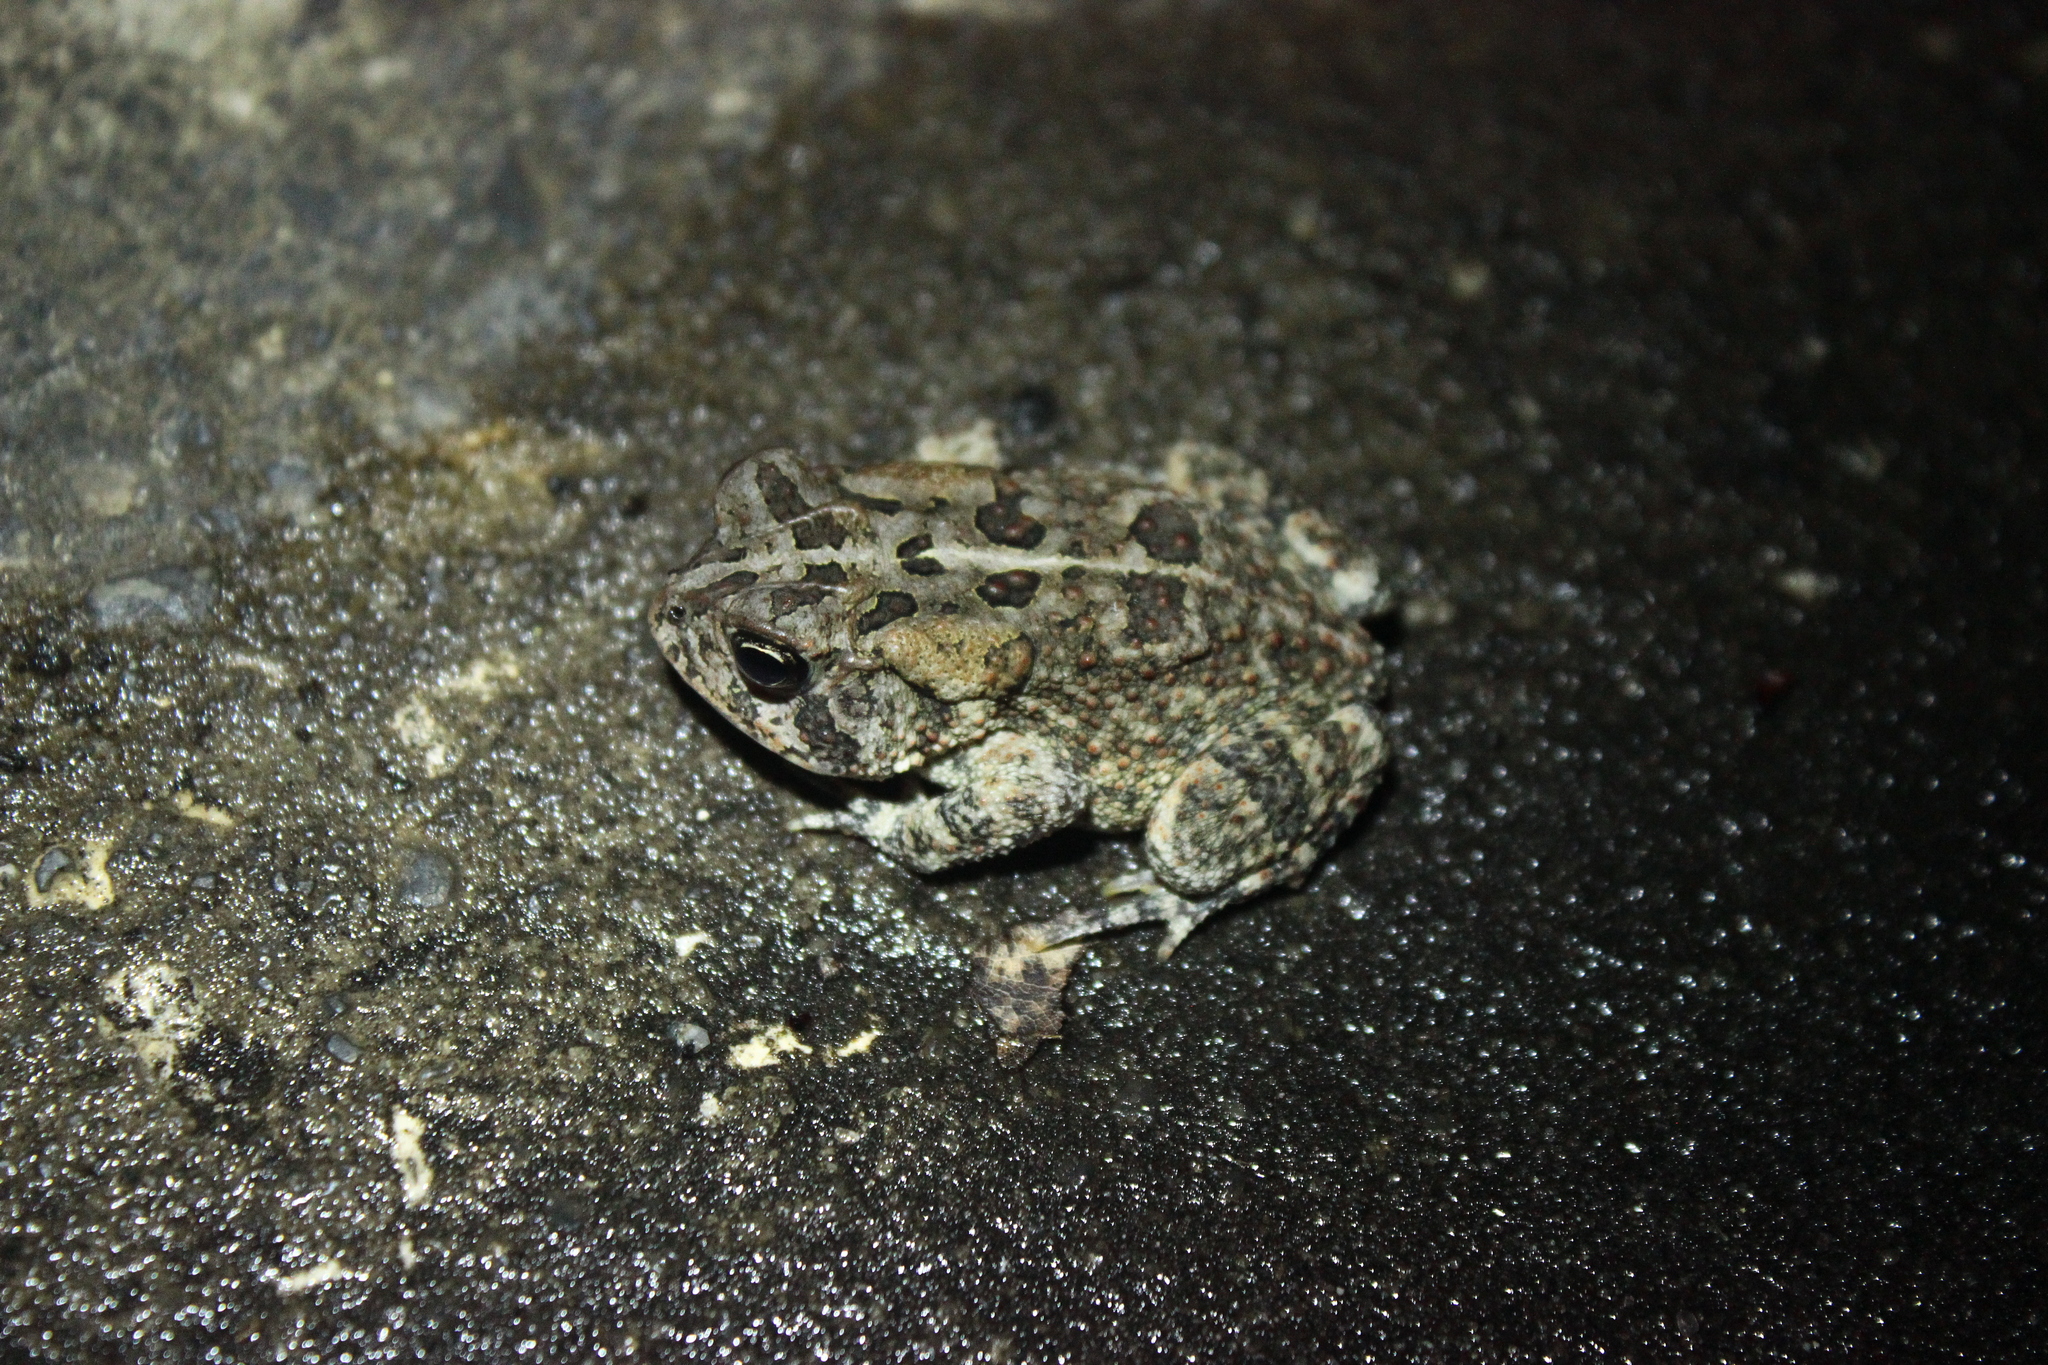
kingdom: Animalia
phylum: Chordata
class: Amphibia
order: Anura
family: Bufonidae
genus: Anaxyrus
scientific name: Anaxyrus terrestris
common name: Southern toad
